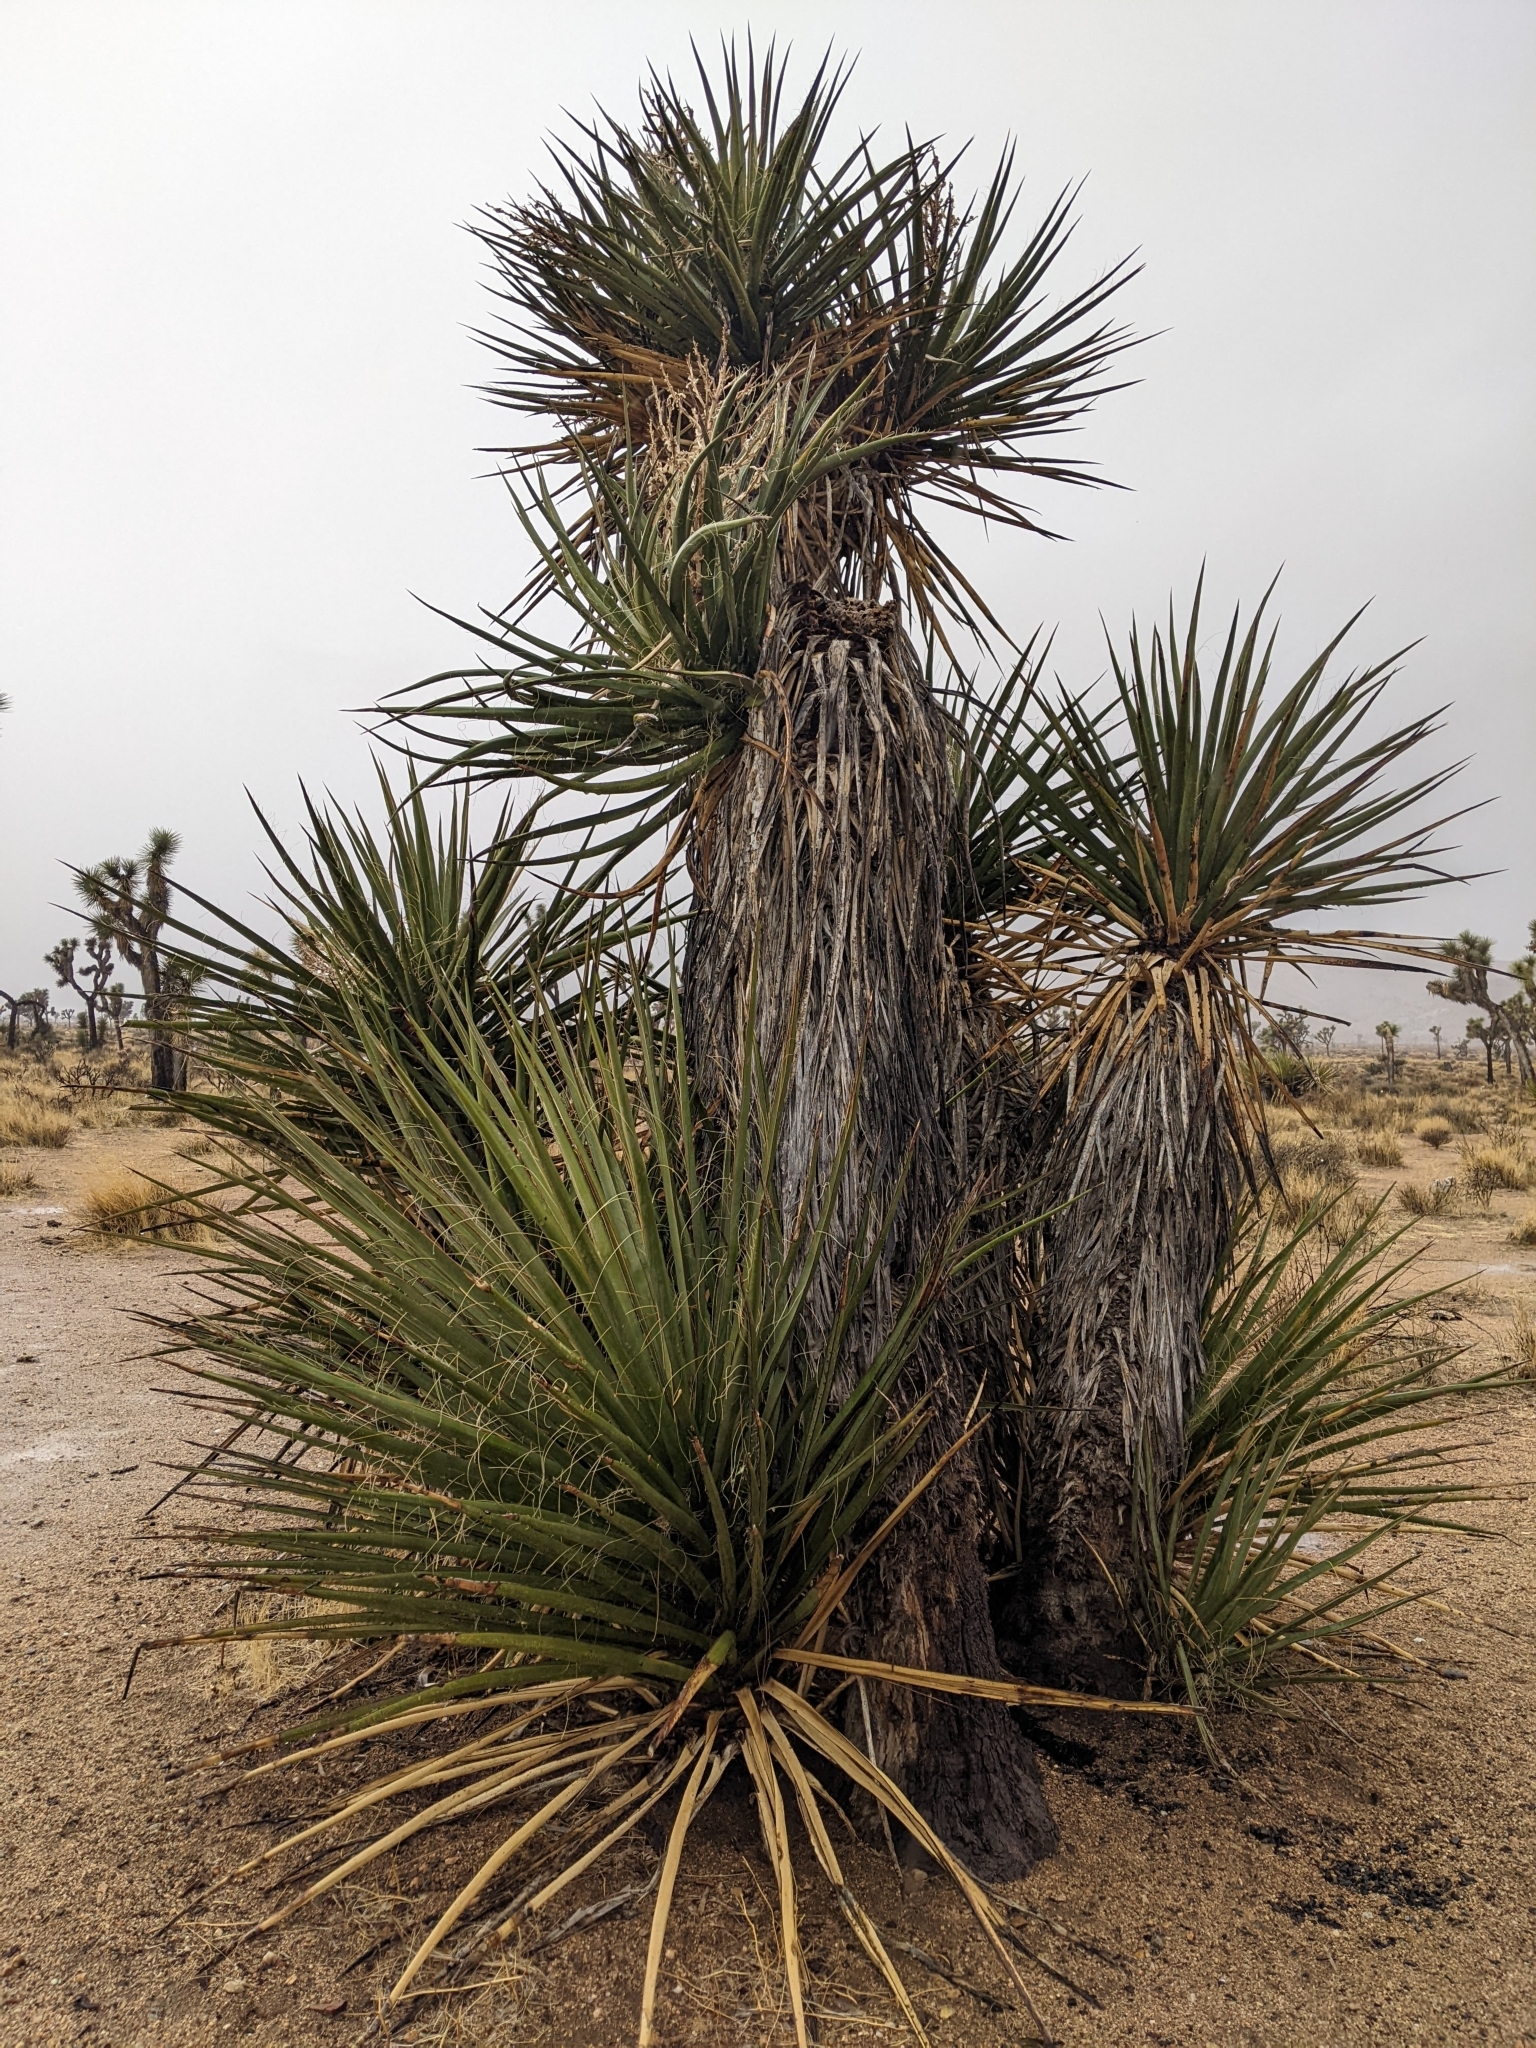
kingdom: Plantae
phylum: Tracheophyta
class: Liliopsida
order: Asparagales
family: Asparagaceae
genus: Yucca
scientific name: Yucca schidigera
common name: Mojave yucca
